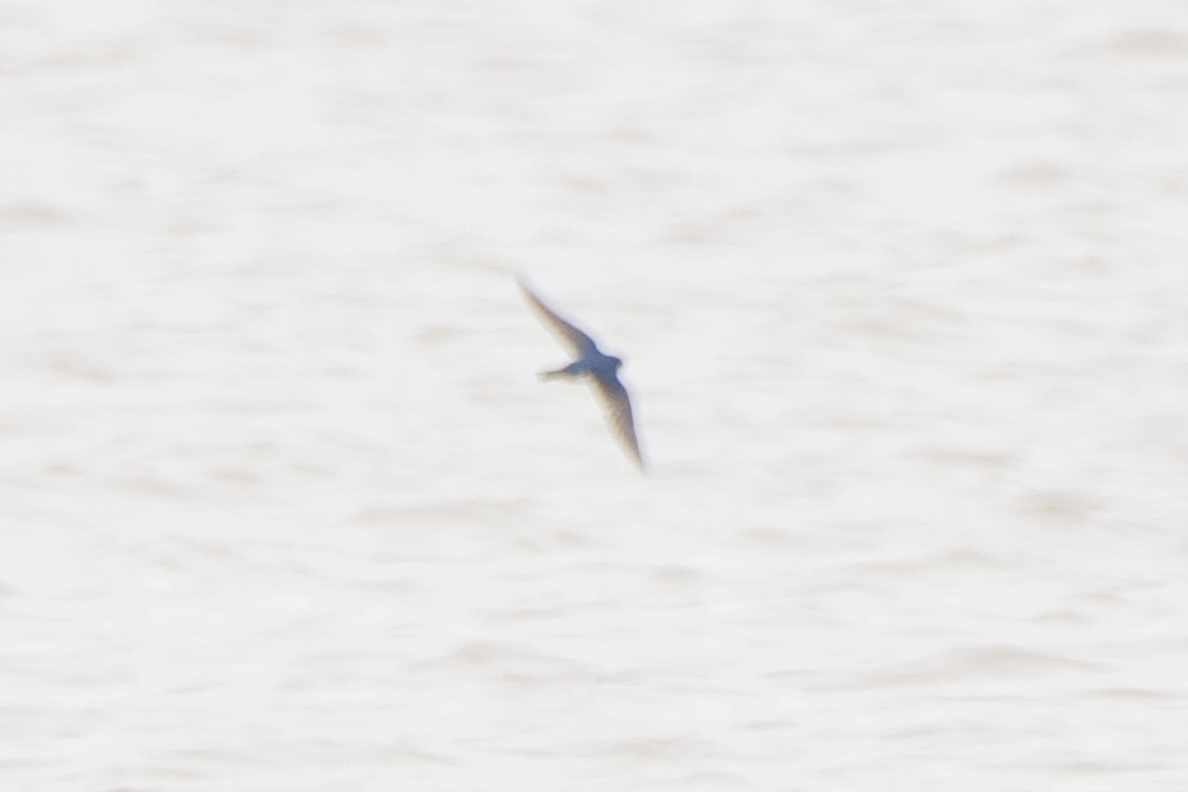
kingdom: Animalia
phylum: Chordata
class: Aves
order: Passeriformes
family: Hirundinidae
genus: Tachycineta
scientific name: Tachycineta bicolor
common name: Tree swallow
